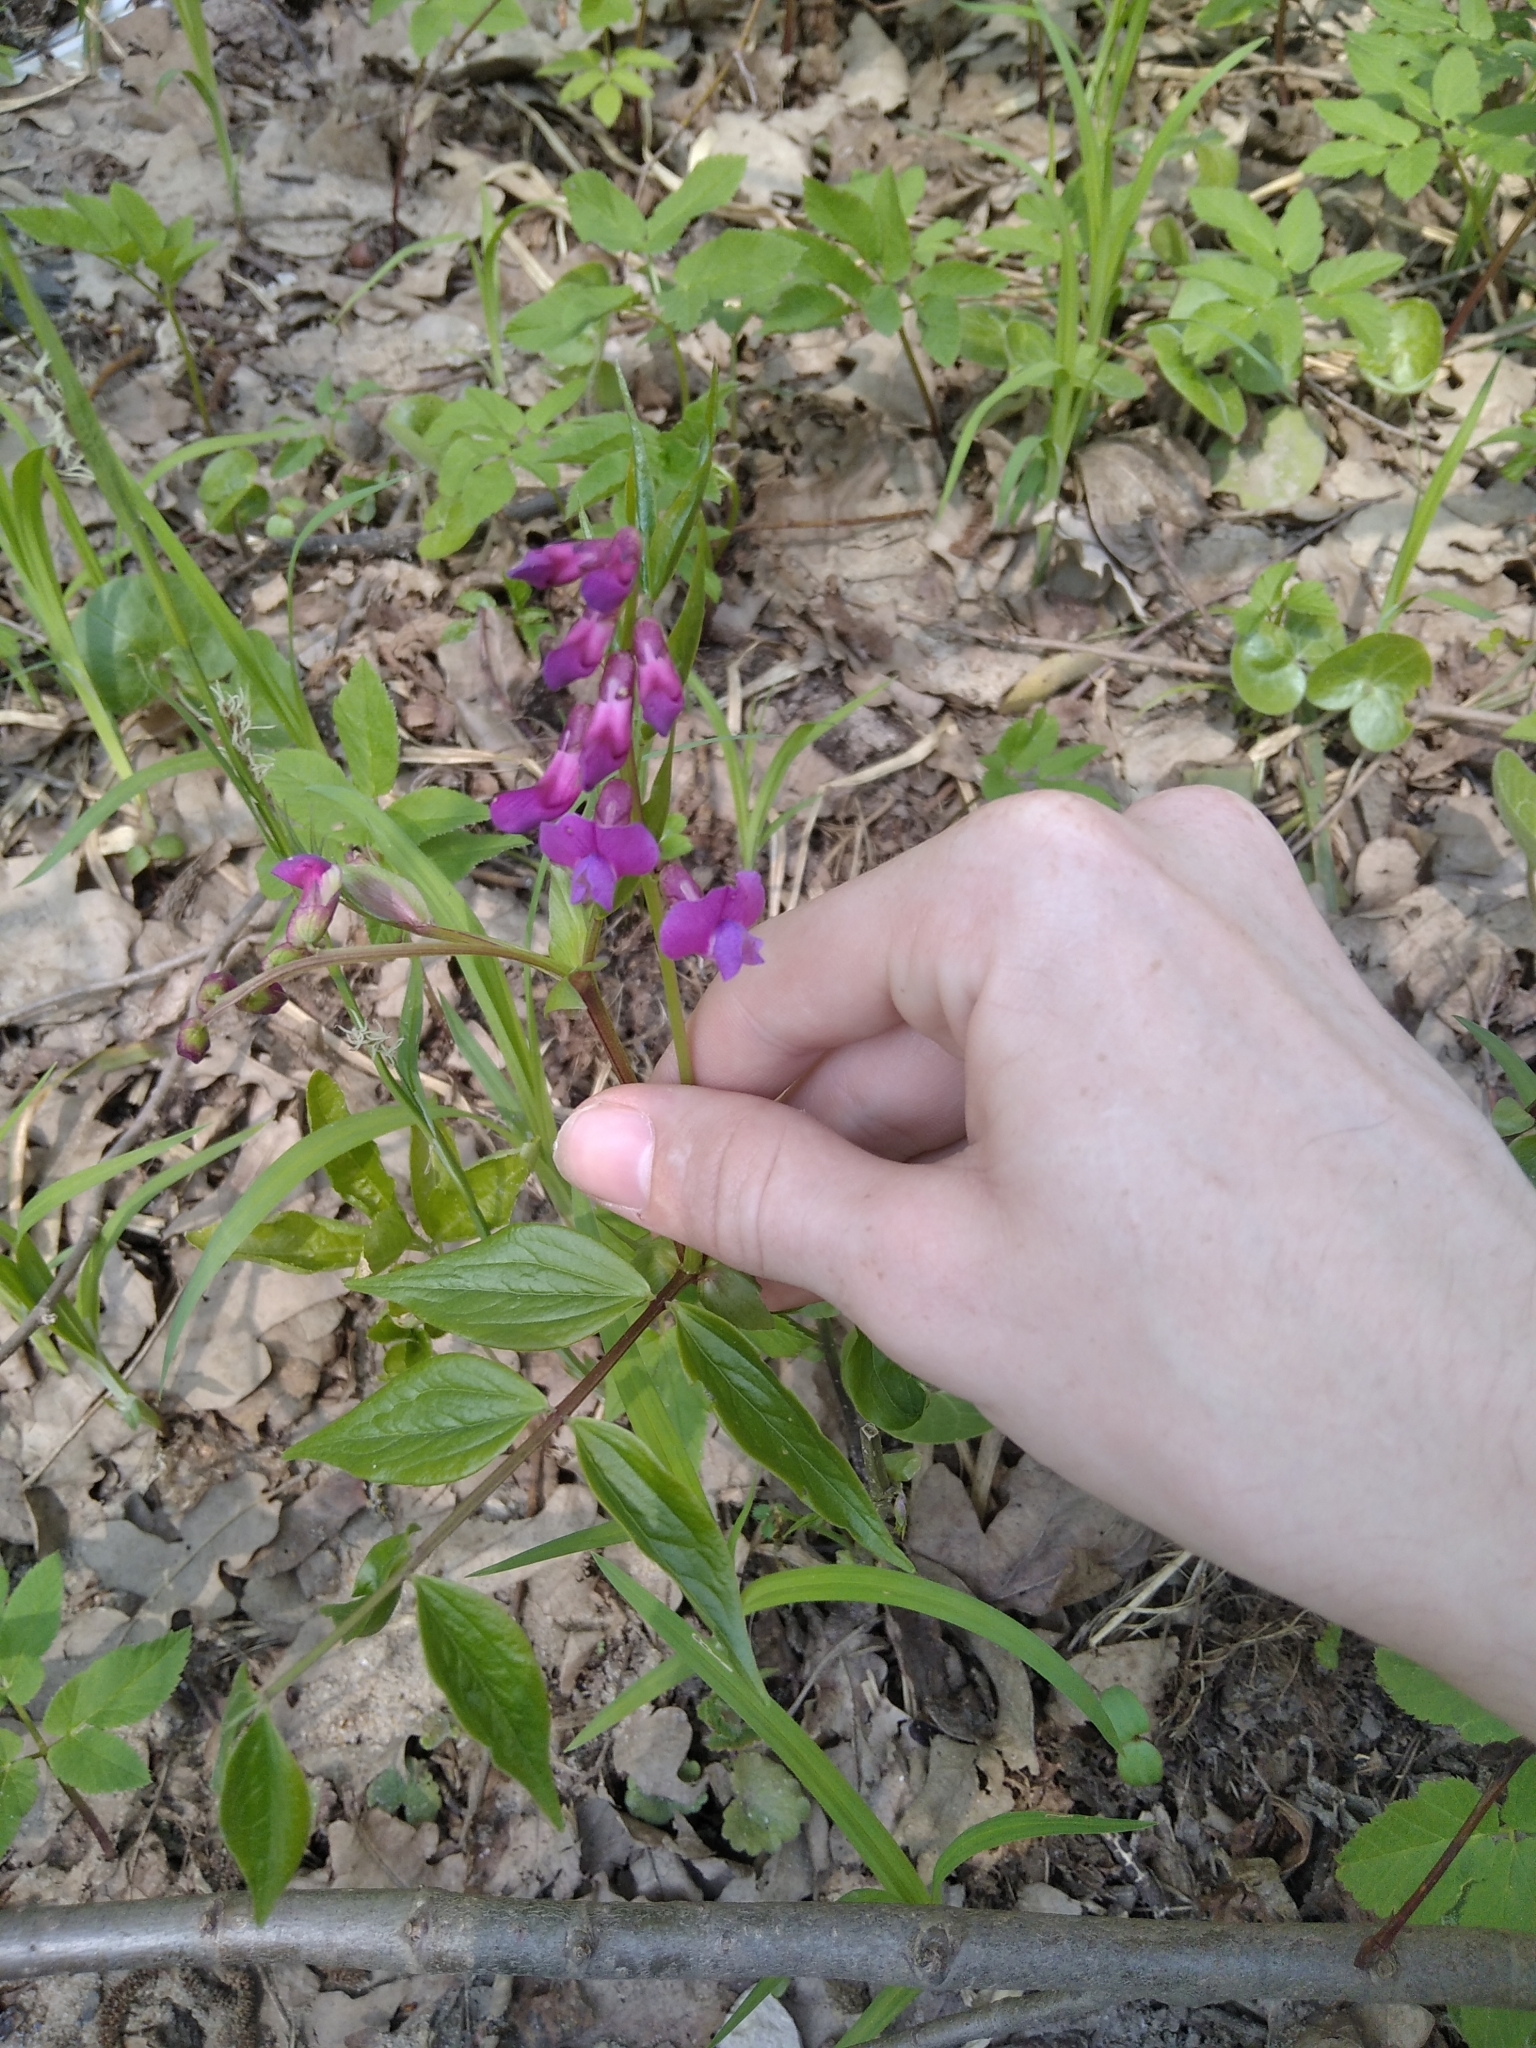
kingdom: Plantae
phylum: Tracheophyta
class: Magnoliopsida
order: Fabales
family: Fabaceae
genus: Lathyrus
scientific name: Lathyrus vernus
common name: Spring pea
